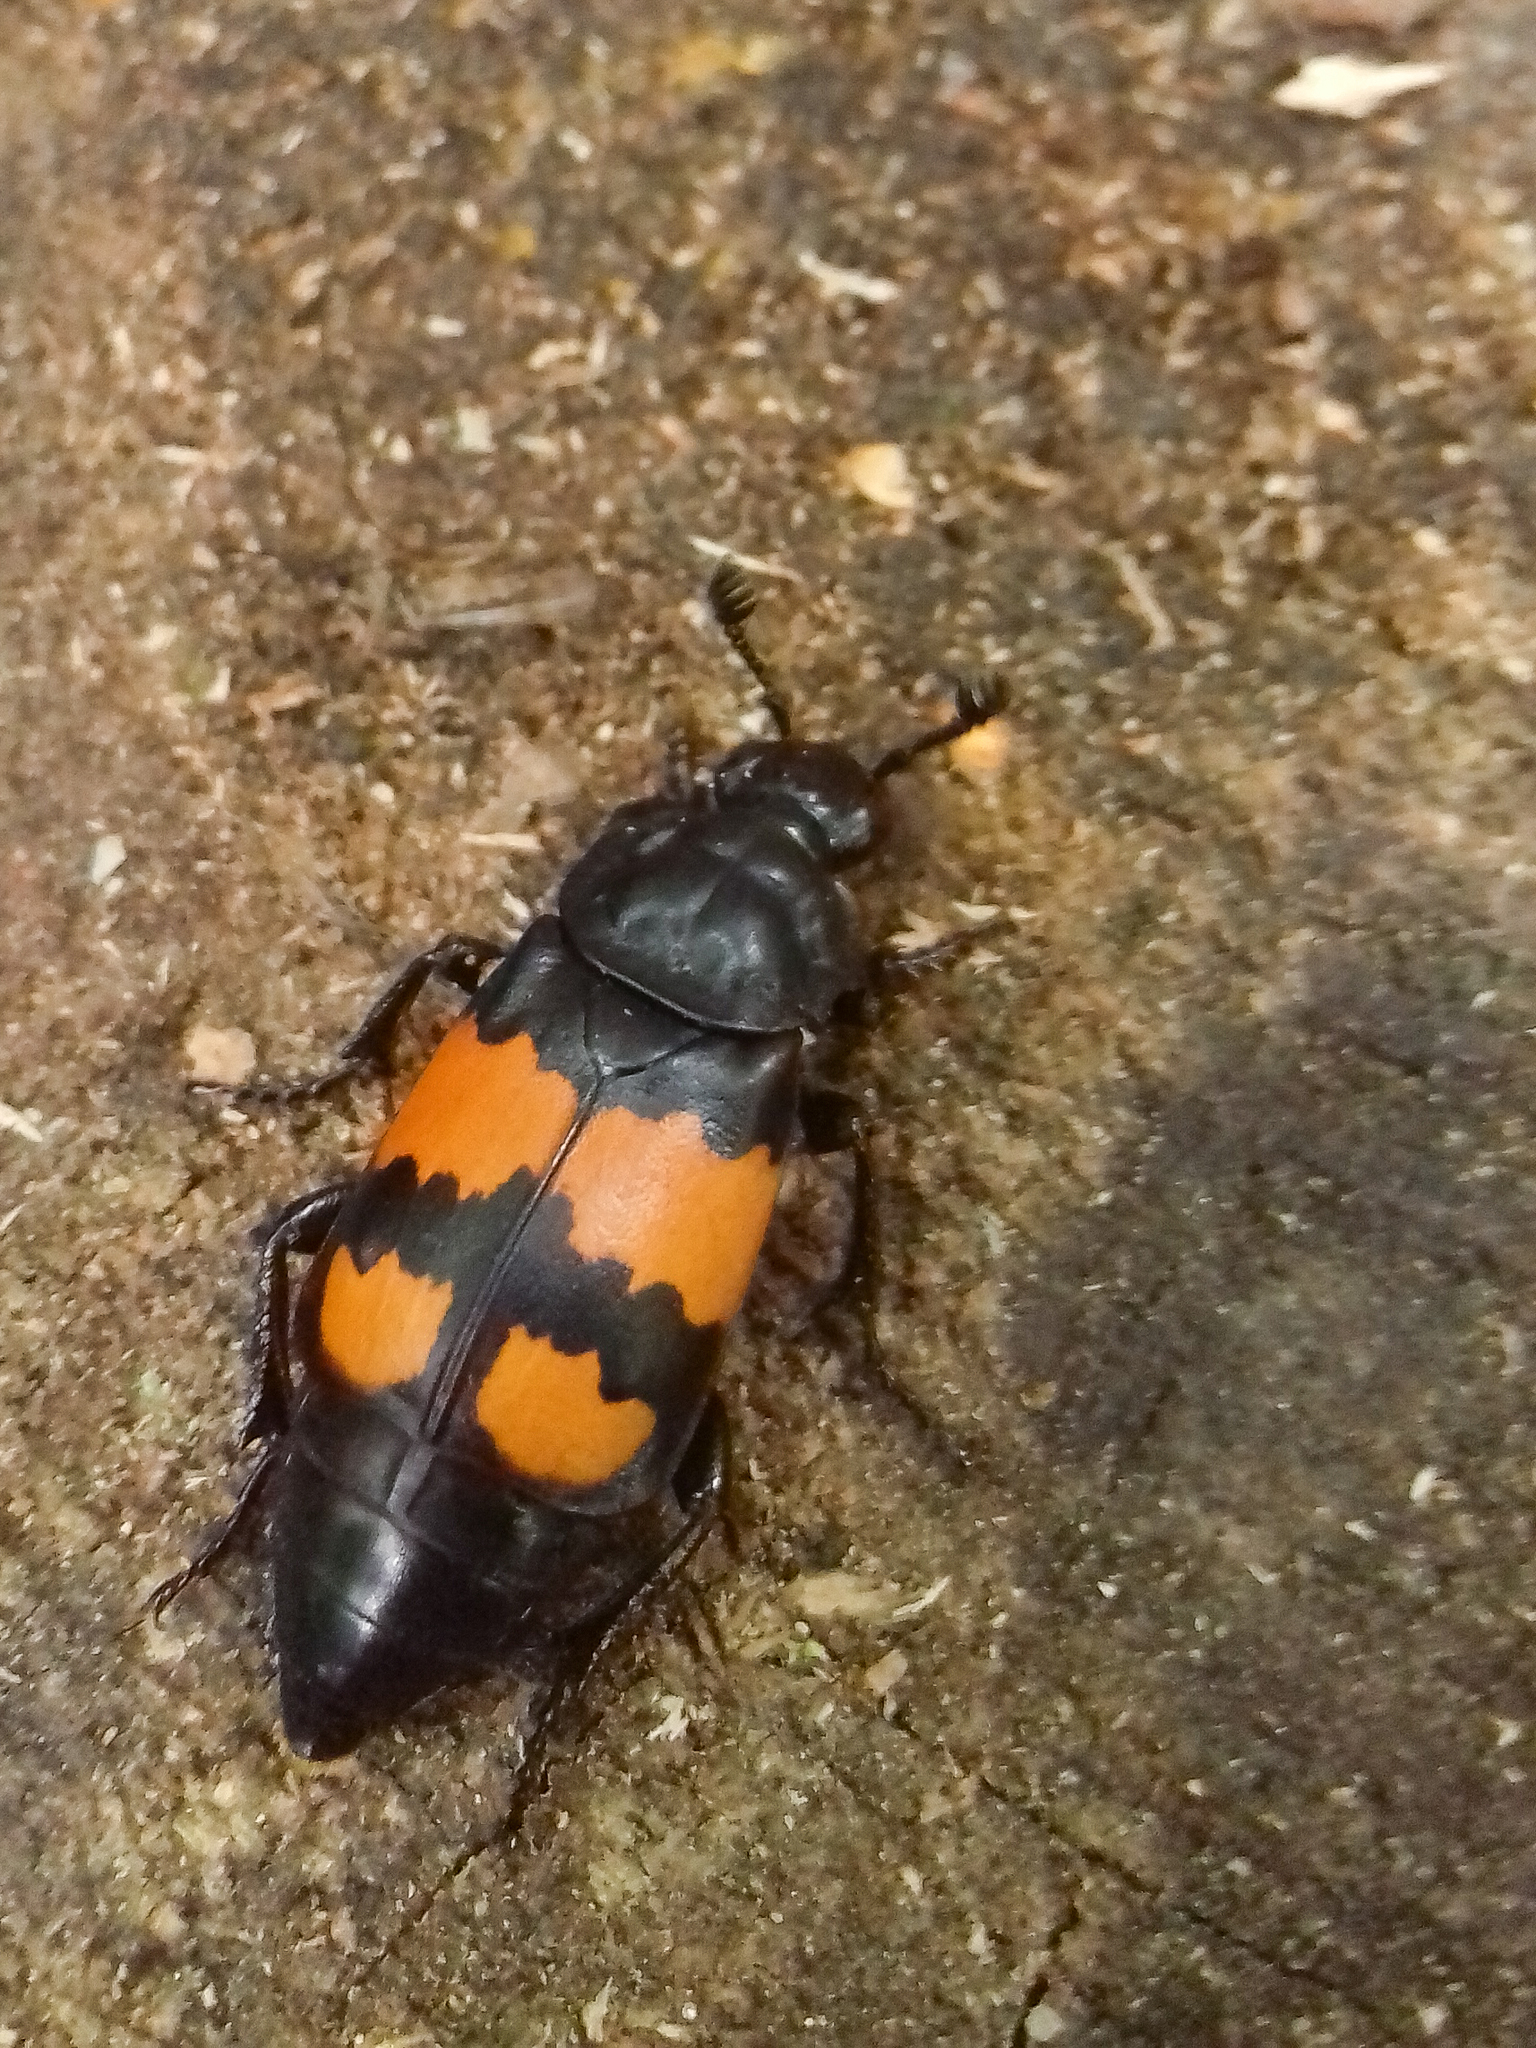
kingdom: Animalia
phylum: Arthropoda
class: Insecta
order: Coleoptera
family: Staphylinidae
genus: Nicrophorus
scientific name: Nicrophorus vespilloides
